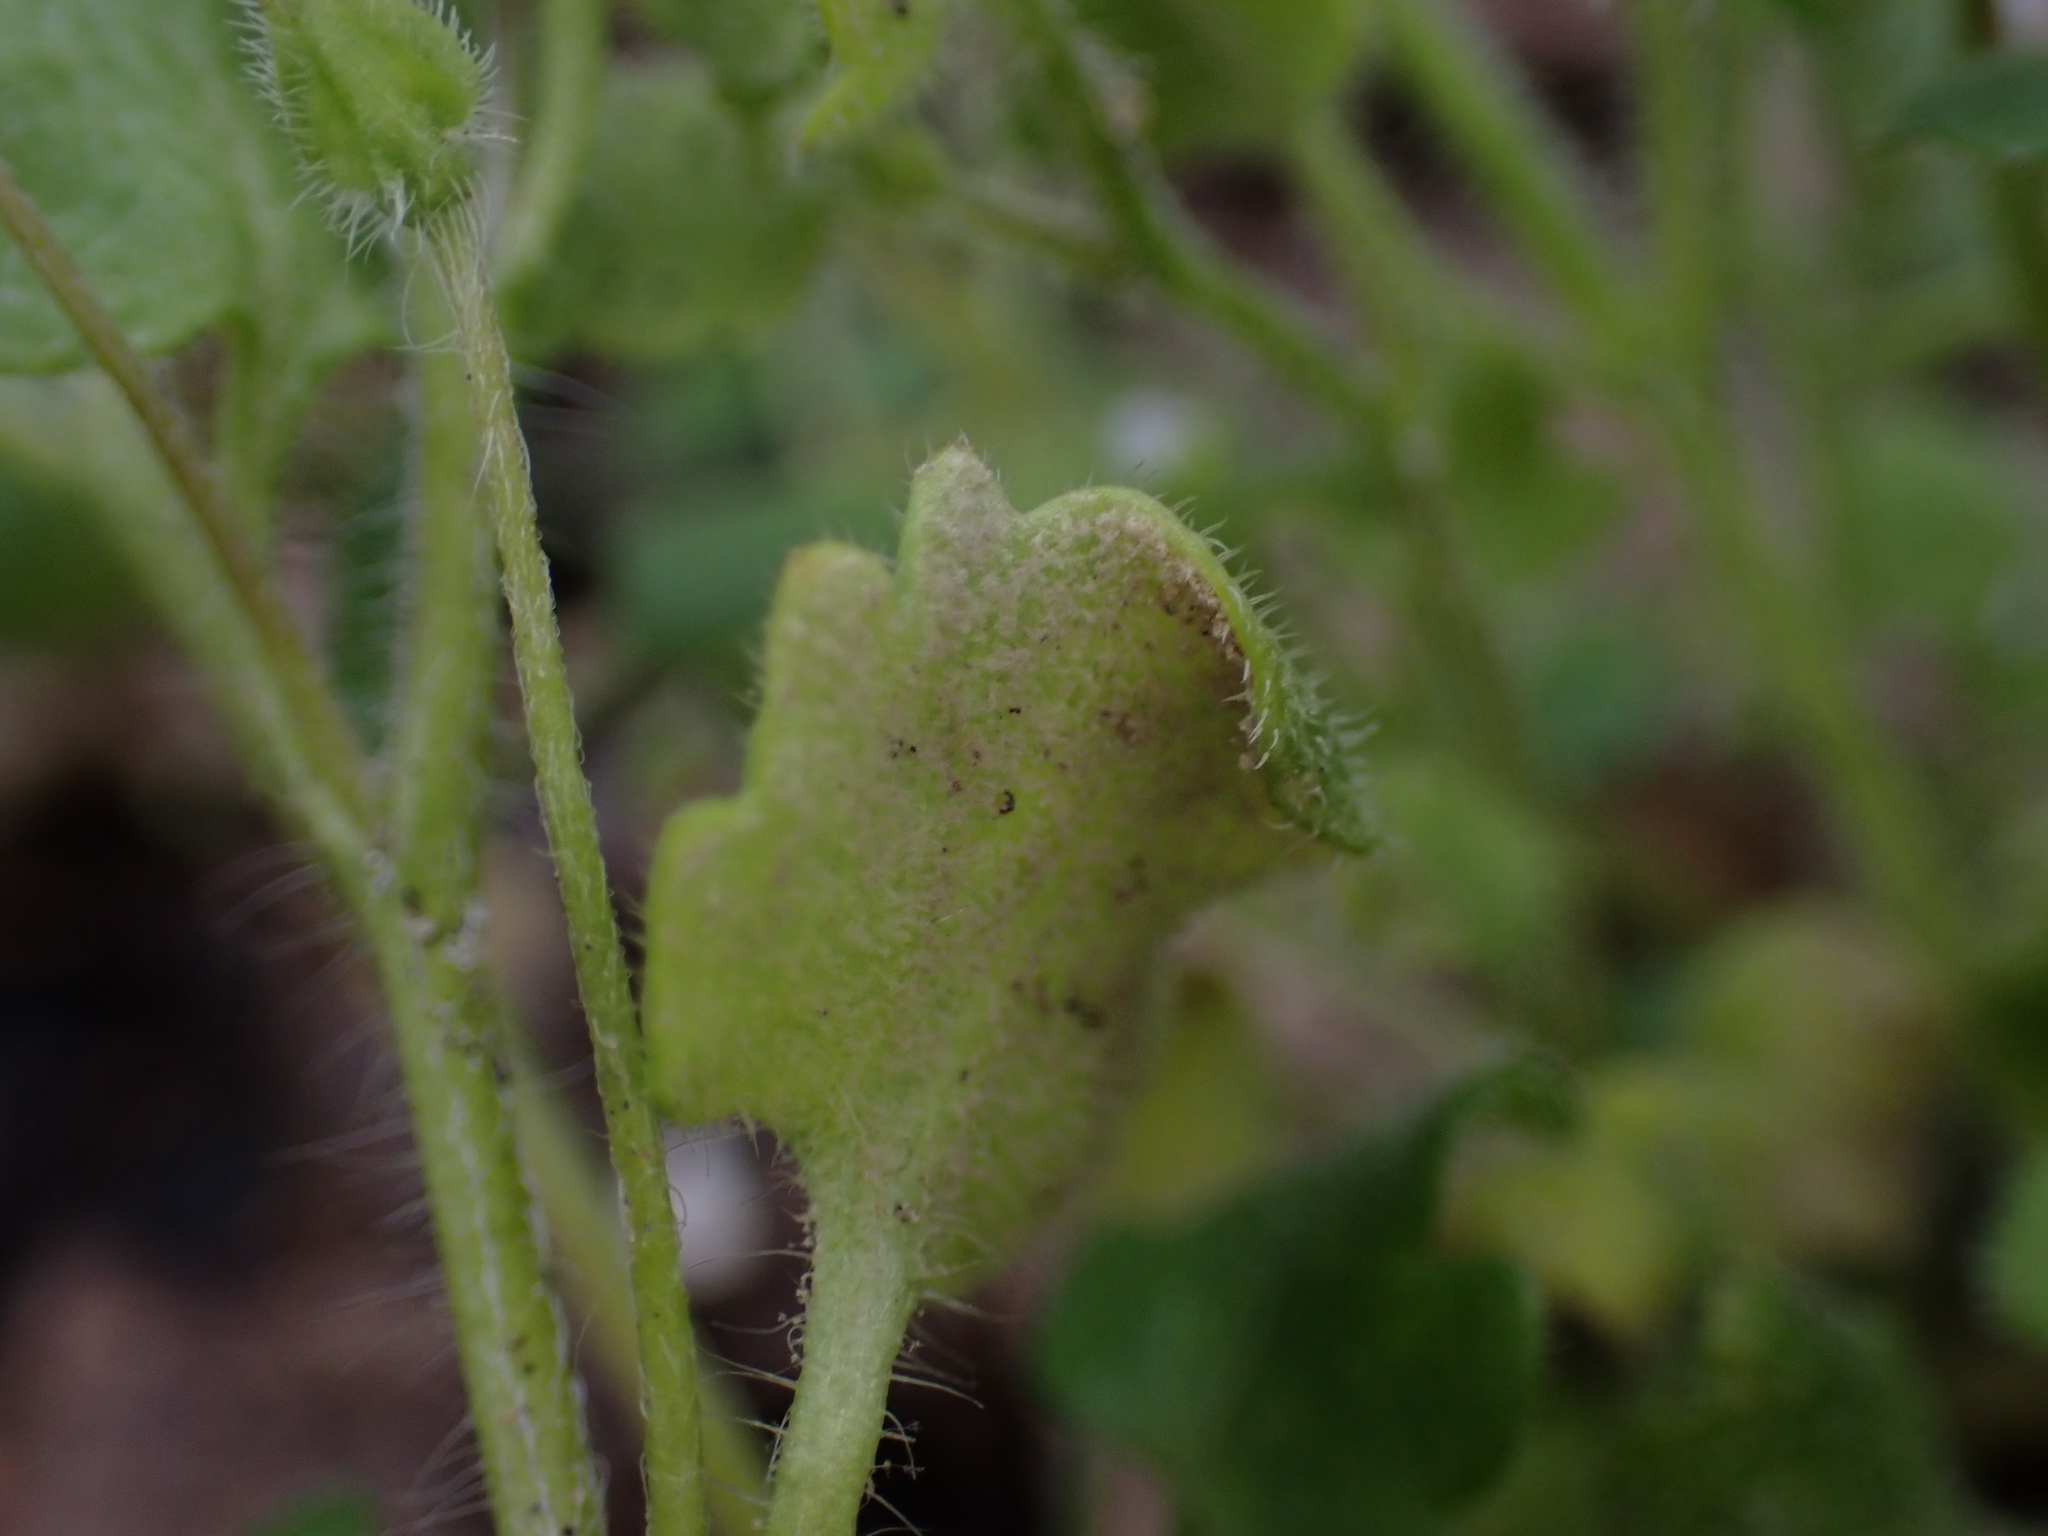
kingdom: Chromista
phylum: Oomycota
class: Peronosporea
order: Peronosporales
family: Peronosporaceae
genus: Peronospora
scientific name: Peronospora arvensis
